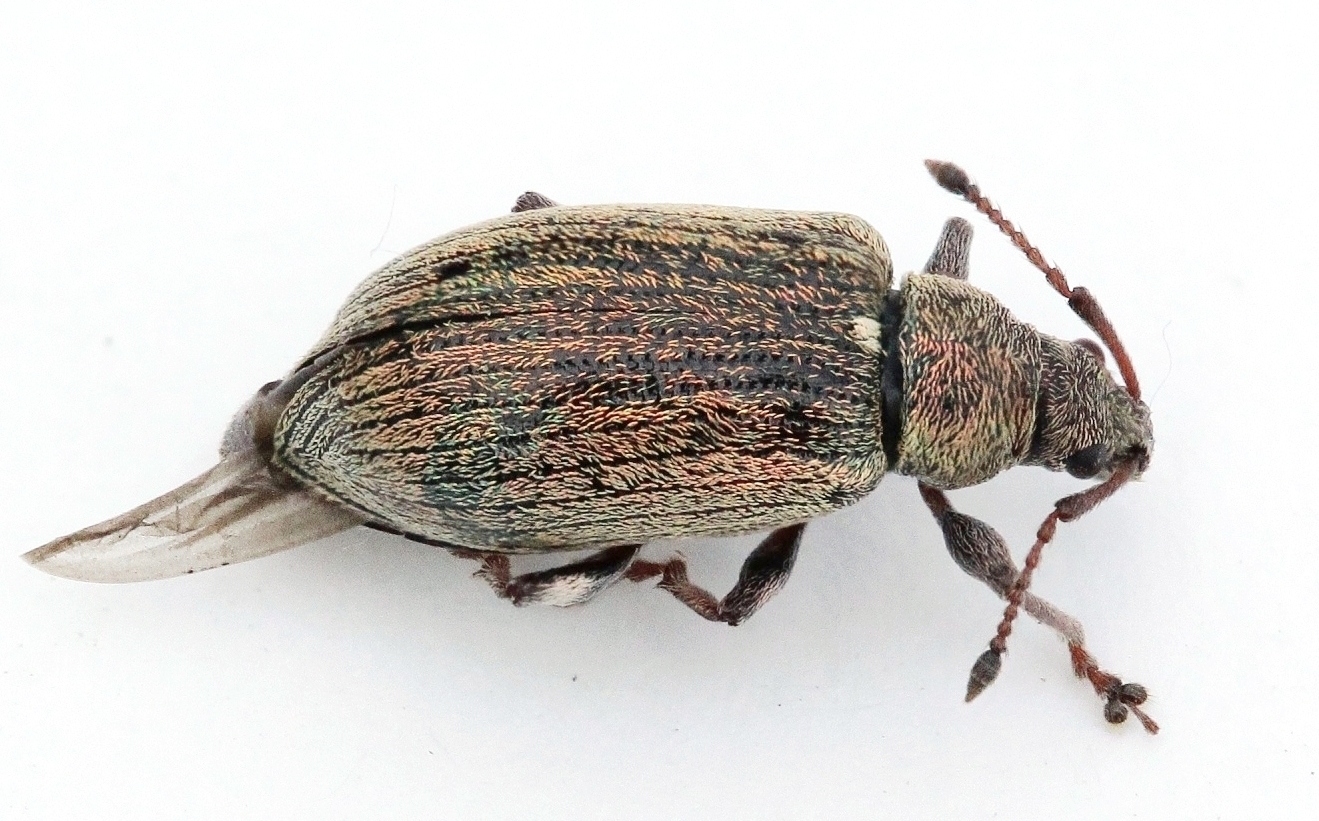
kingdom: Animalia
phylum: Arthropoda
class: Insecta
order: Coleoptera
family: Curculionidae
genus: Phyllobius
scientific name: Phyllobius pyri
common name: Common leaf weevil
